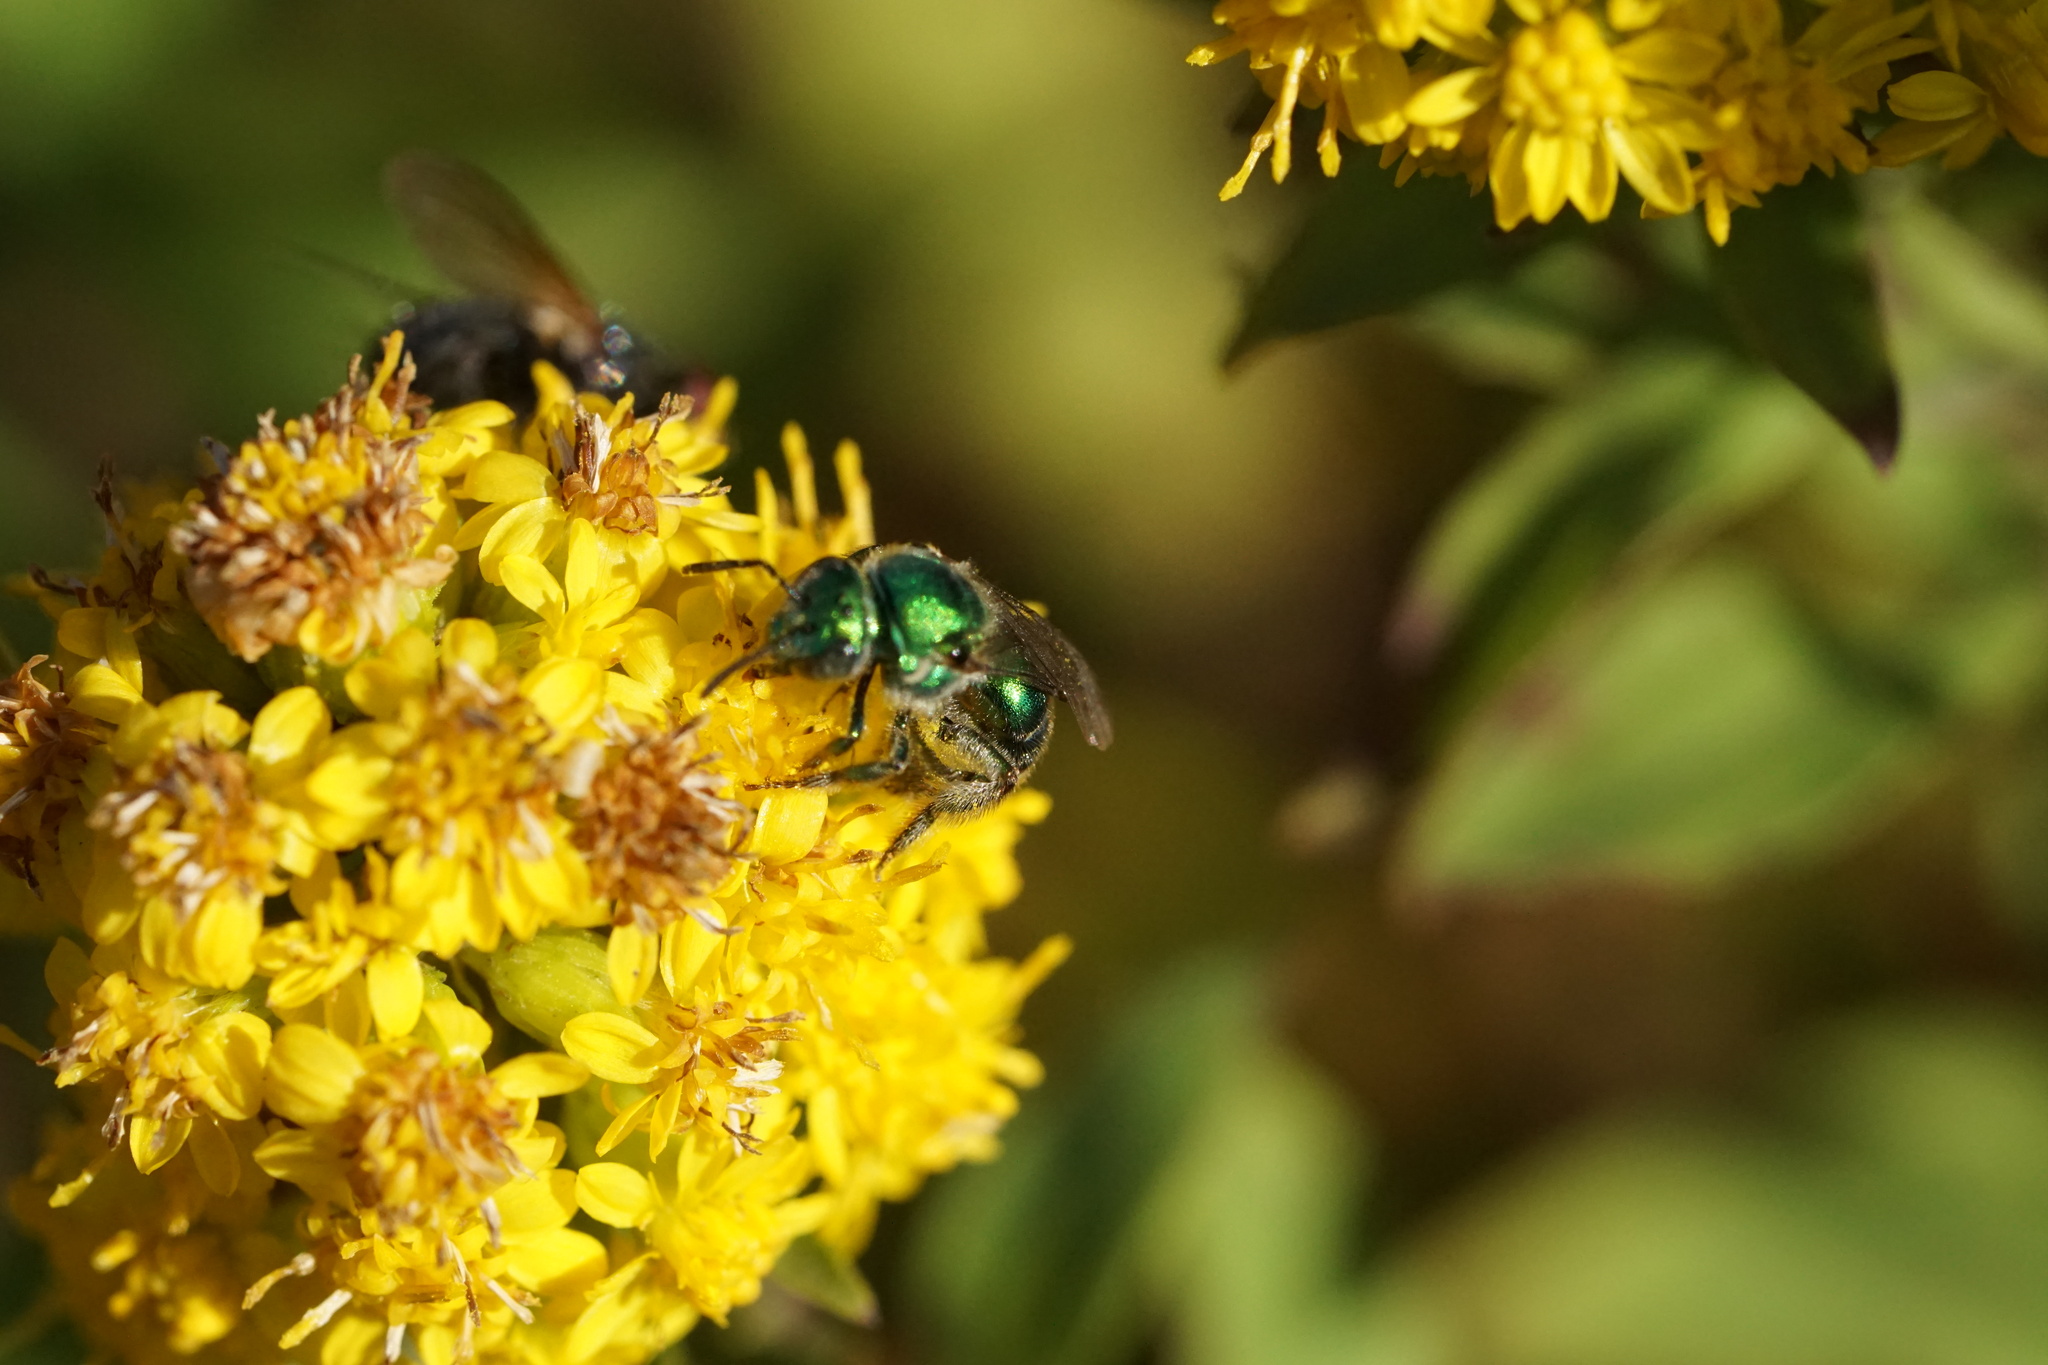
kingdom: Animalia
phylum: Arthropoda
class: Insecta
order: Hymenoptera
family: Halictidae
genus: Augochloropsis
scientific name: Augochloropsis viridula
